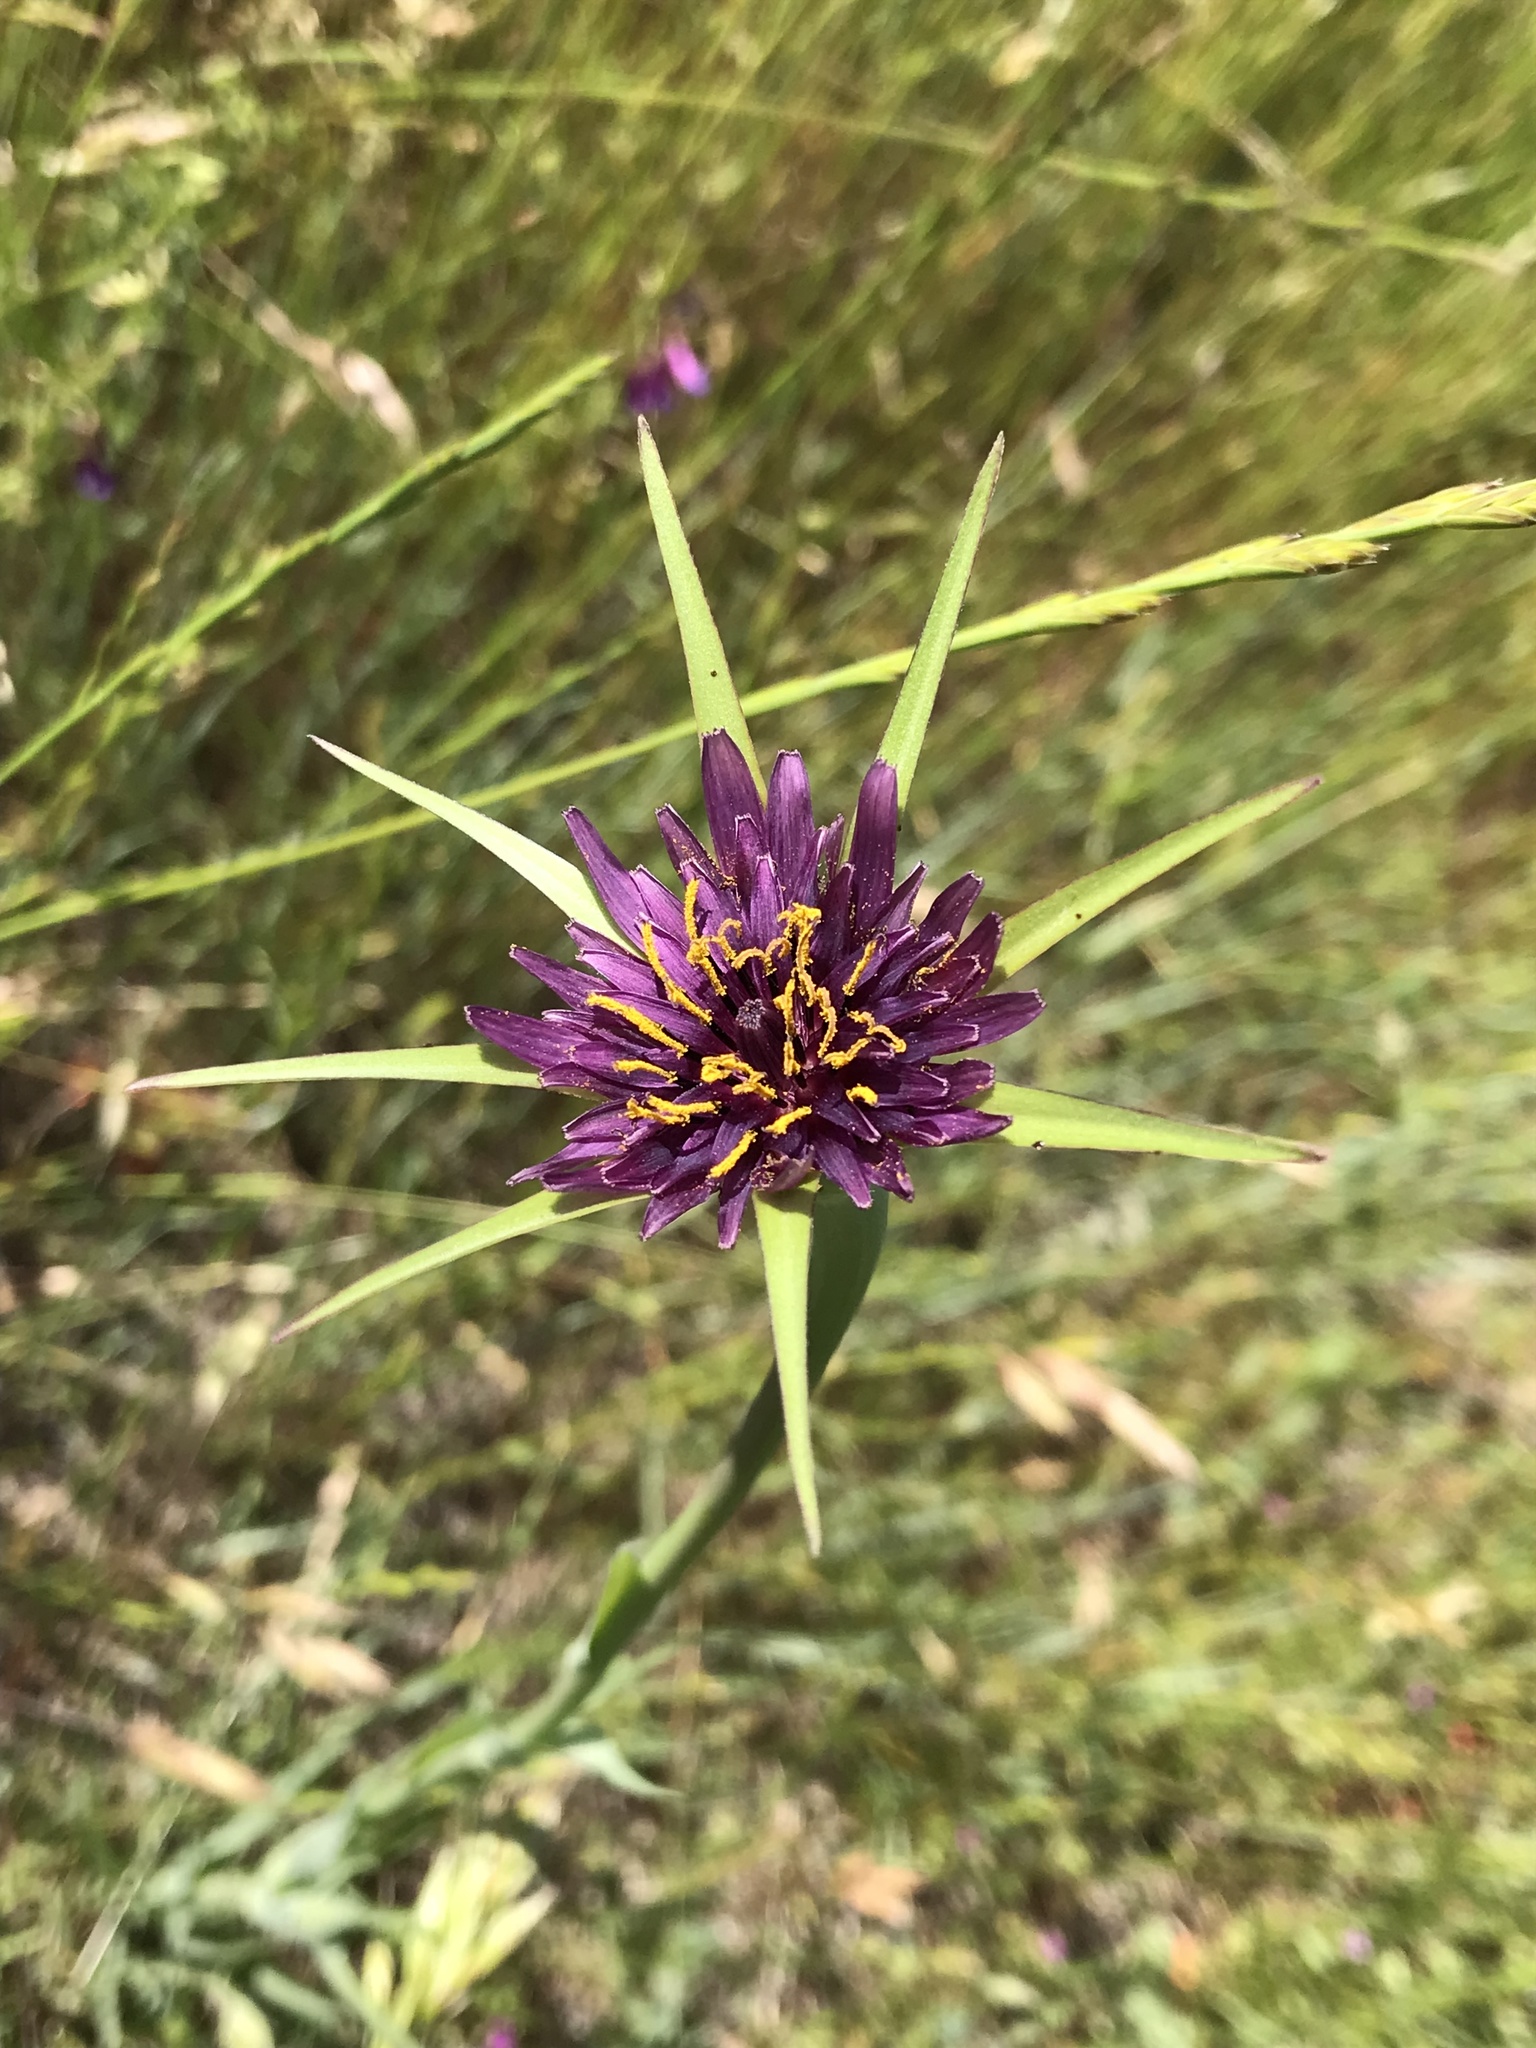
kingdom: Plantae
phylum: Tracheophyta
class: Magnoliopsida
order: Asterales
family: Asteraceae
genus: Tragopogon
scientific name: Tragopogon porrifolius
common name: Salsify
